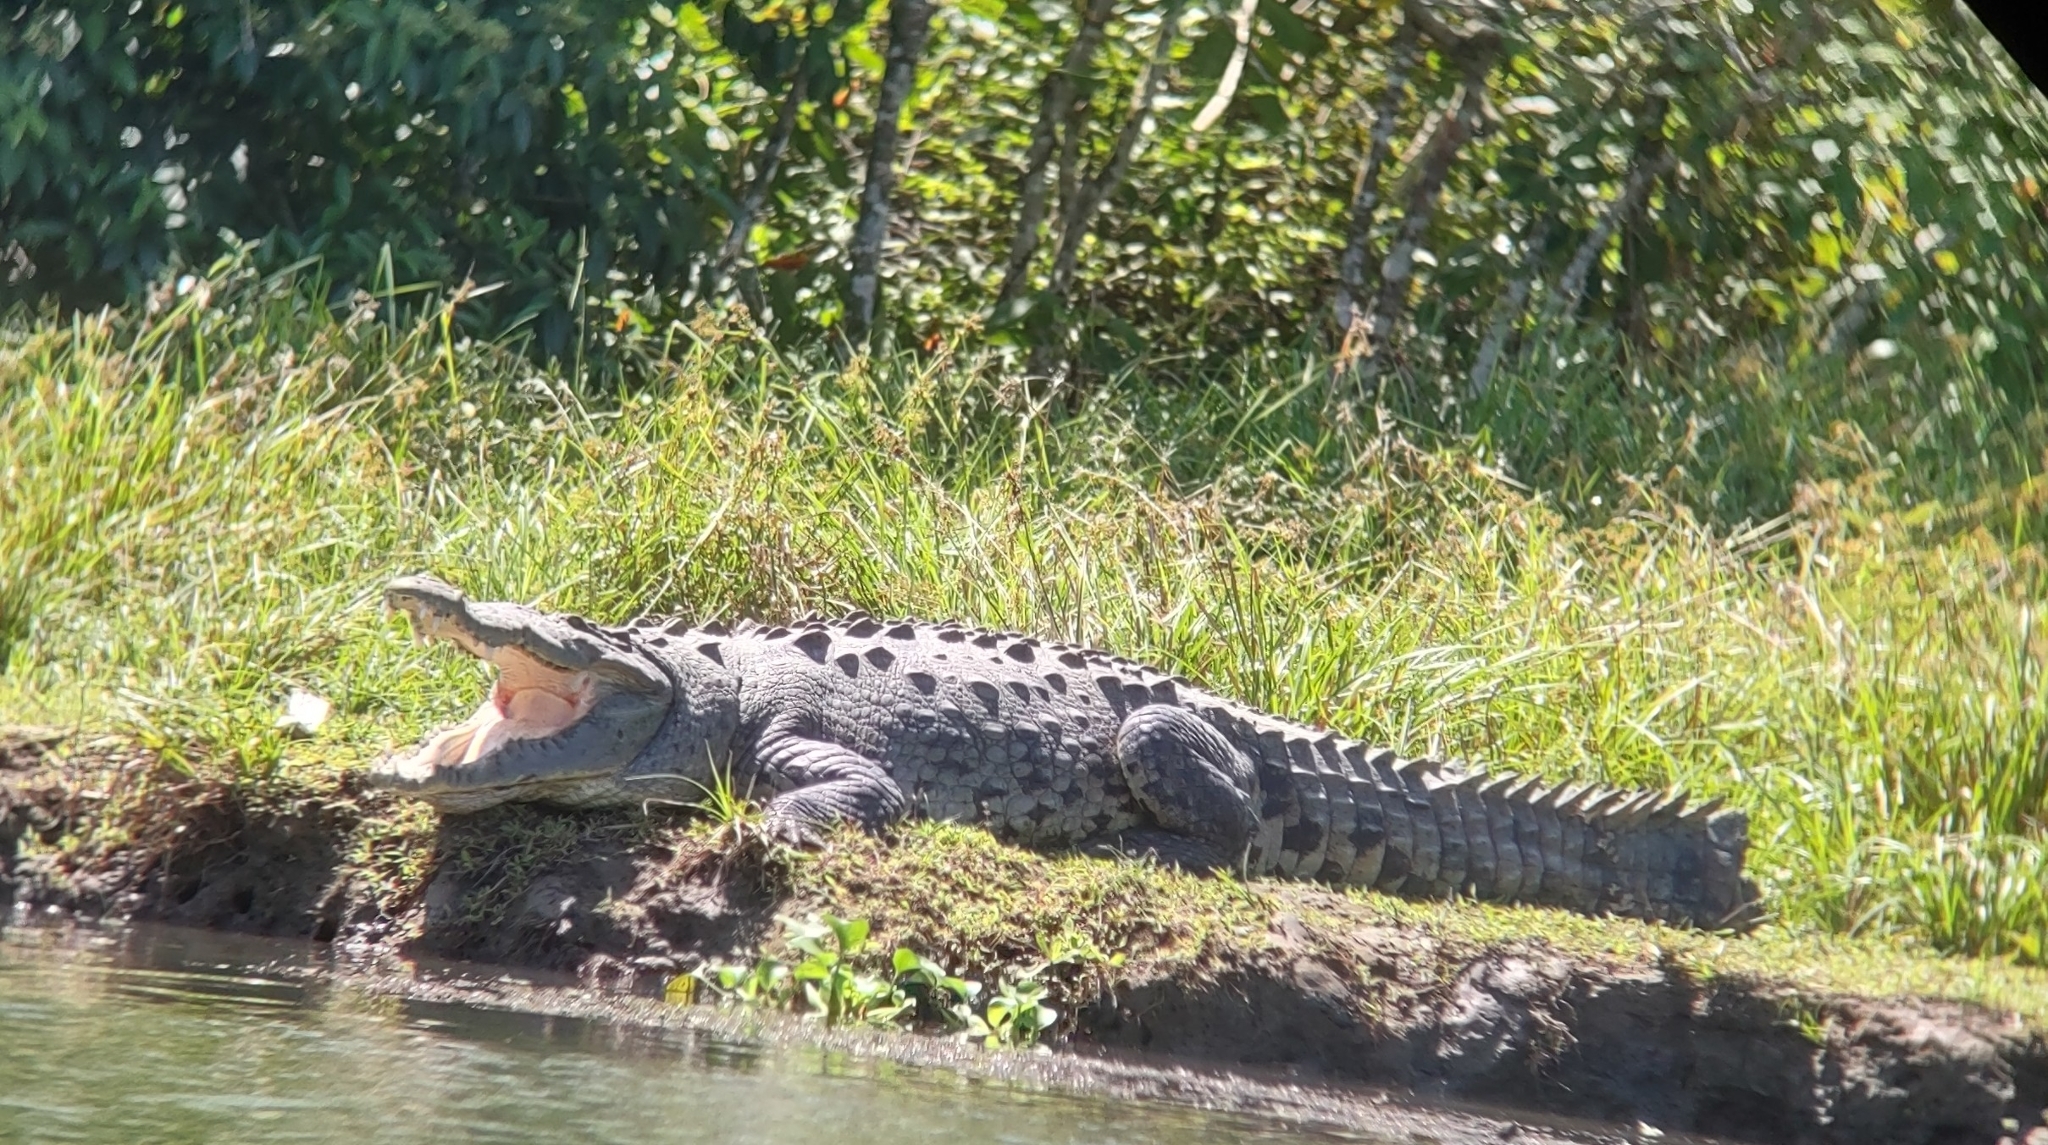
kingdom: Animalia
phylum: Chordata
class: Crocodylia
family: Crocodylidae
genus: Crocodylus
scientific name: Crocodylus acutus
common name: American crocodile
